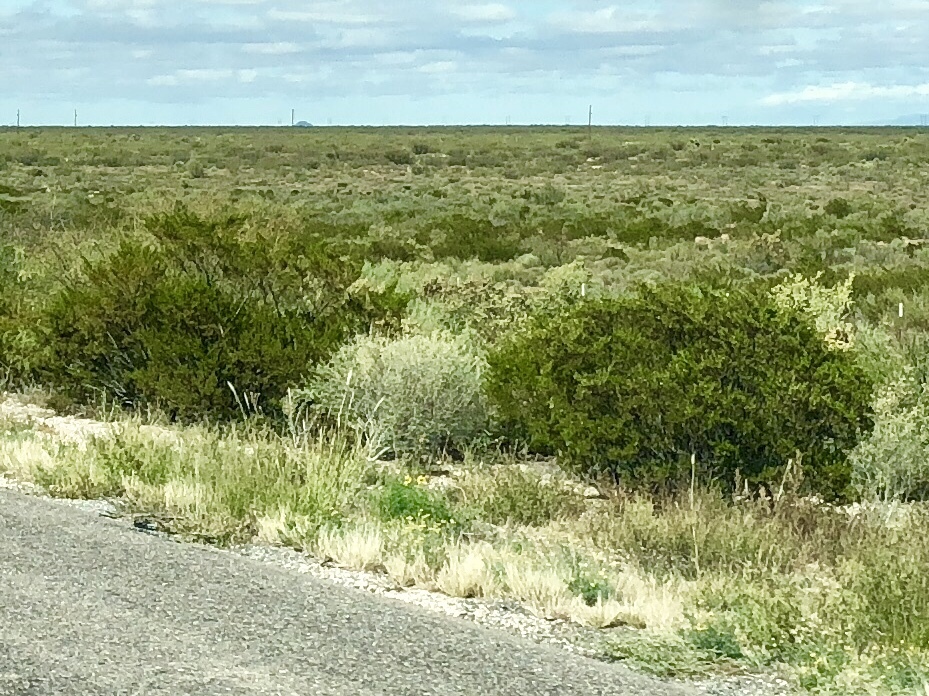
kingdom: Plantae
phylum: Tracheophyta
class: Magnoliopsida
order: Zygophyllales
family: Zygophyllaceae
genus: Larrea
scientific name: Larrea tridentata
